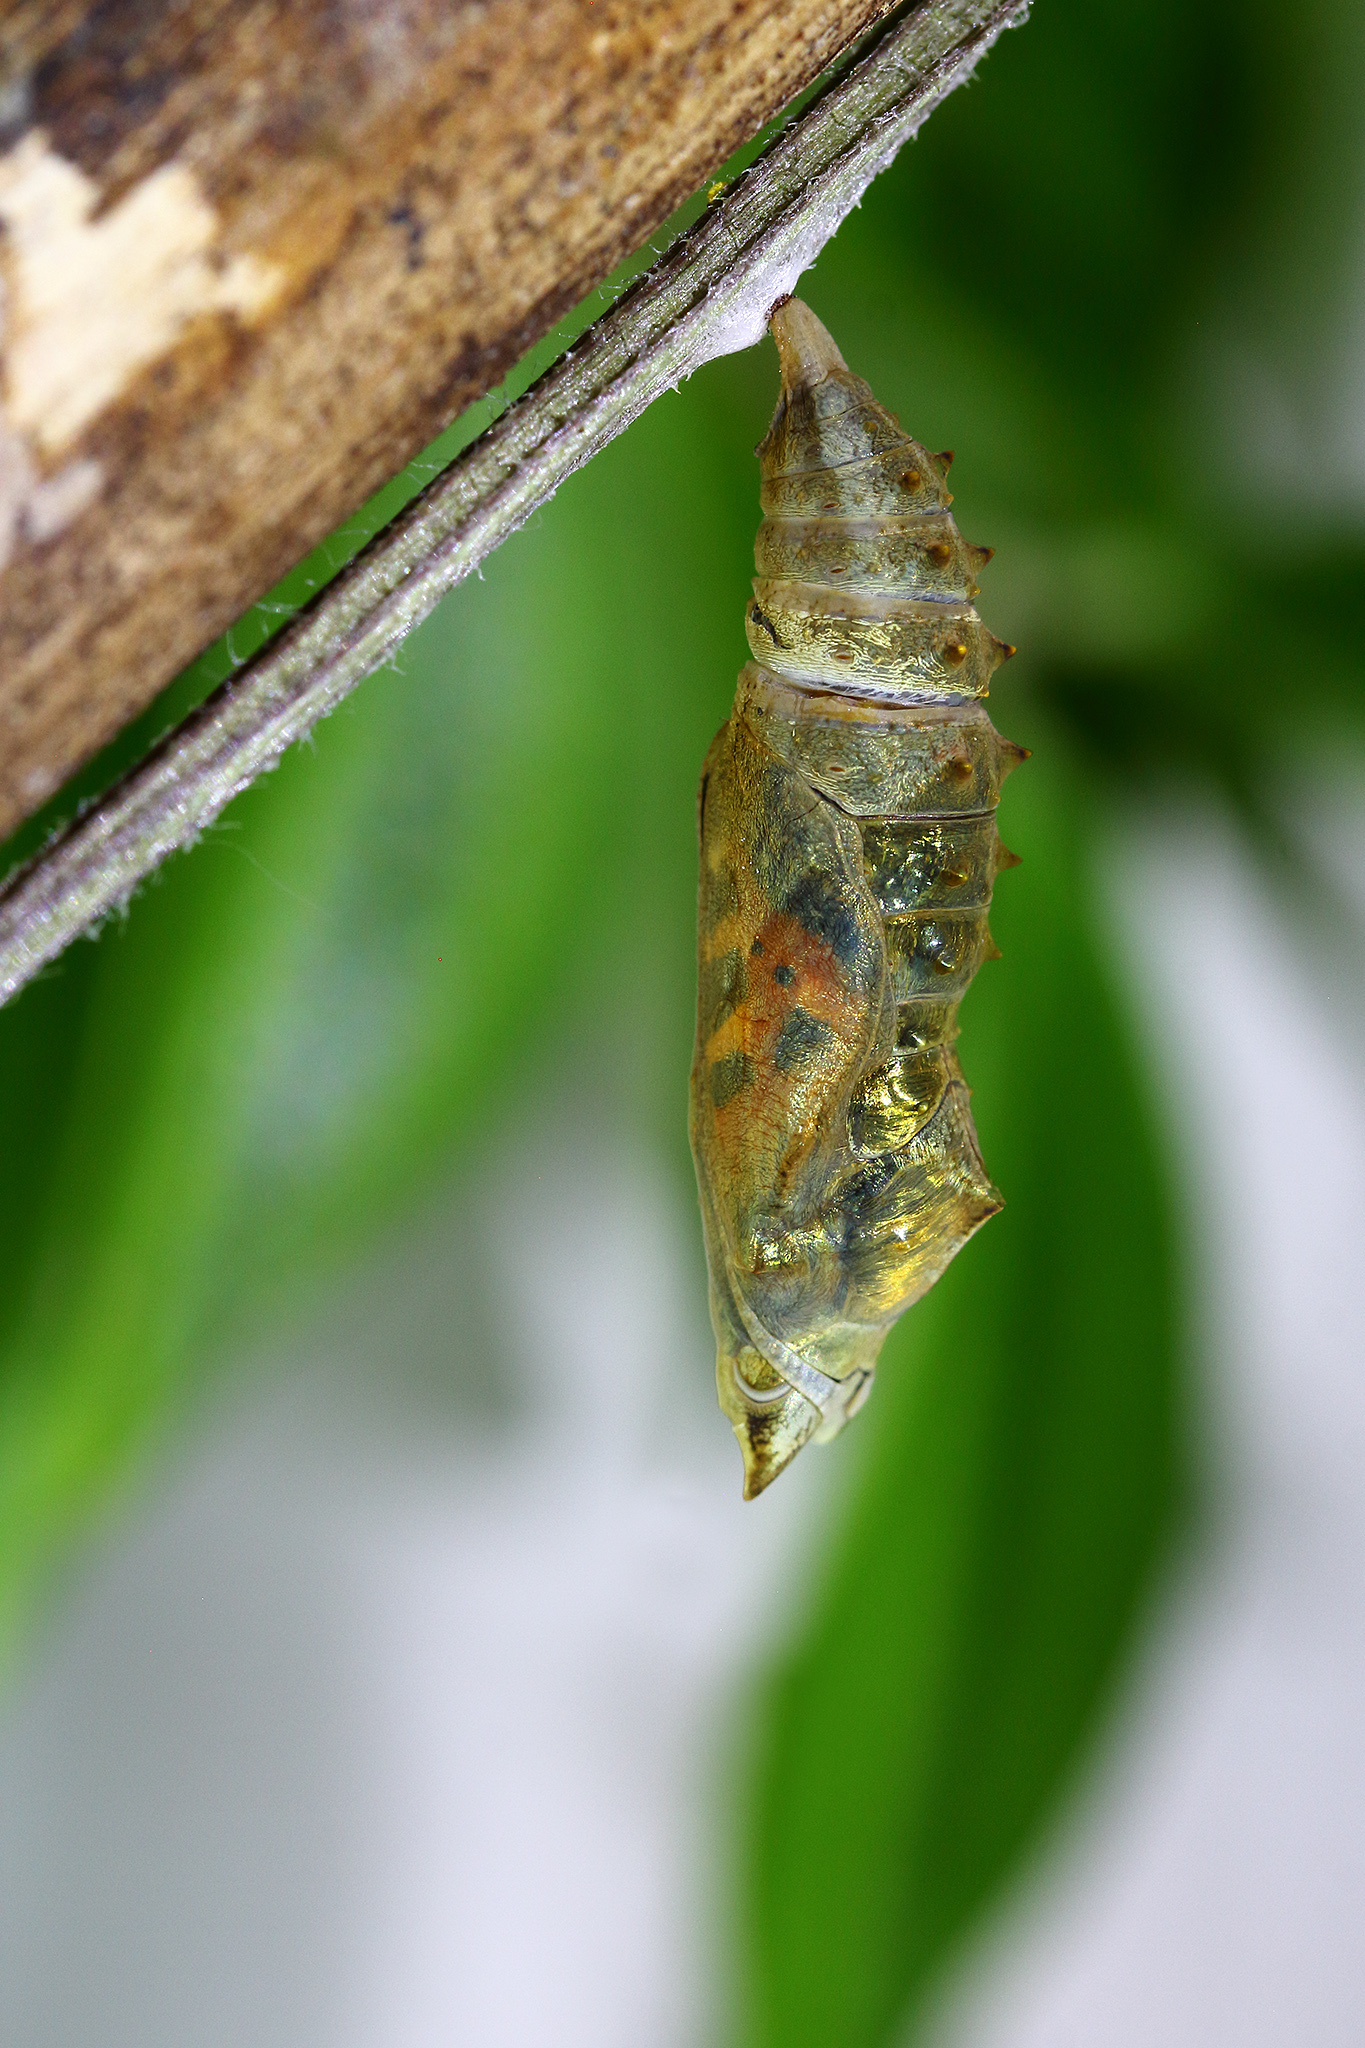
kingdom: Animalia
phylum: Arthropoda
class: Insecta
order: Lepidoptera
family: Nymphalidae
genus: Aglais
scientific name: Aglais urticae
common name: Small tortoiseshell
